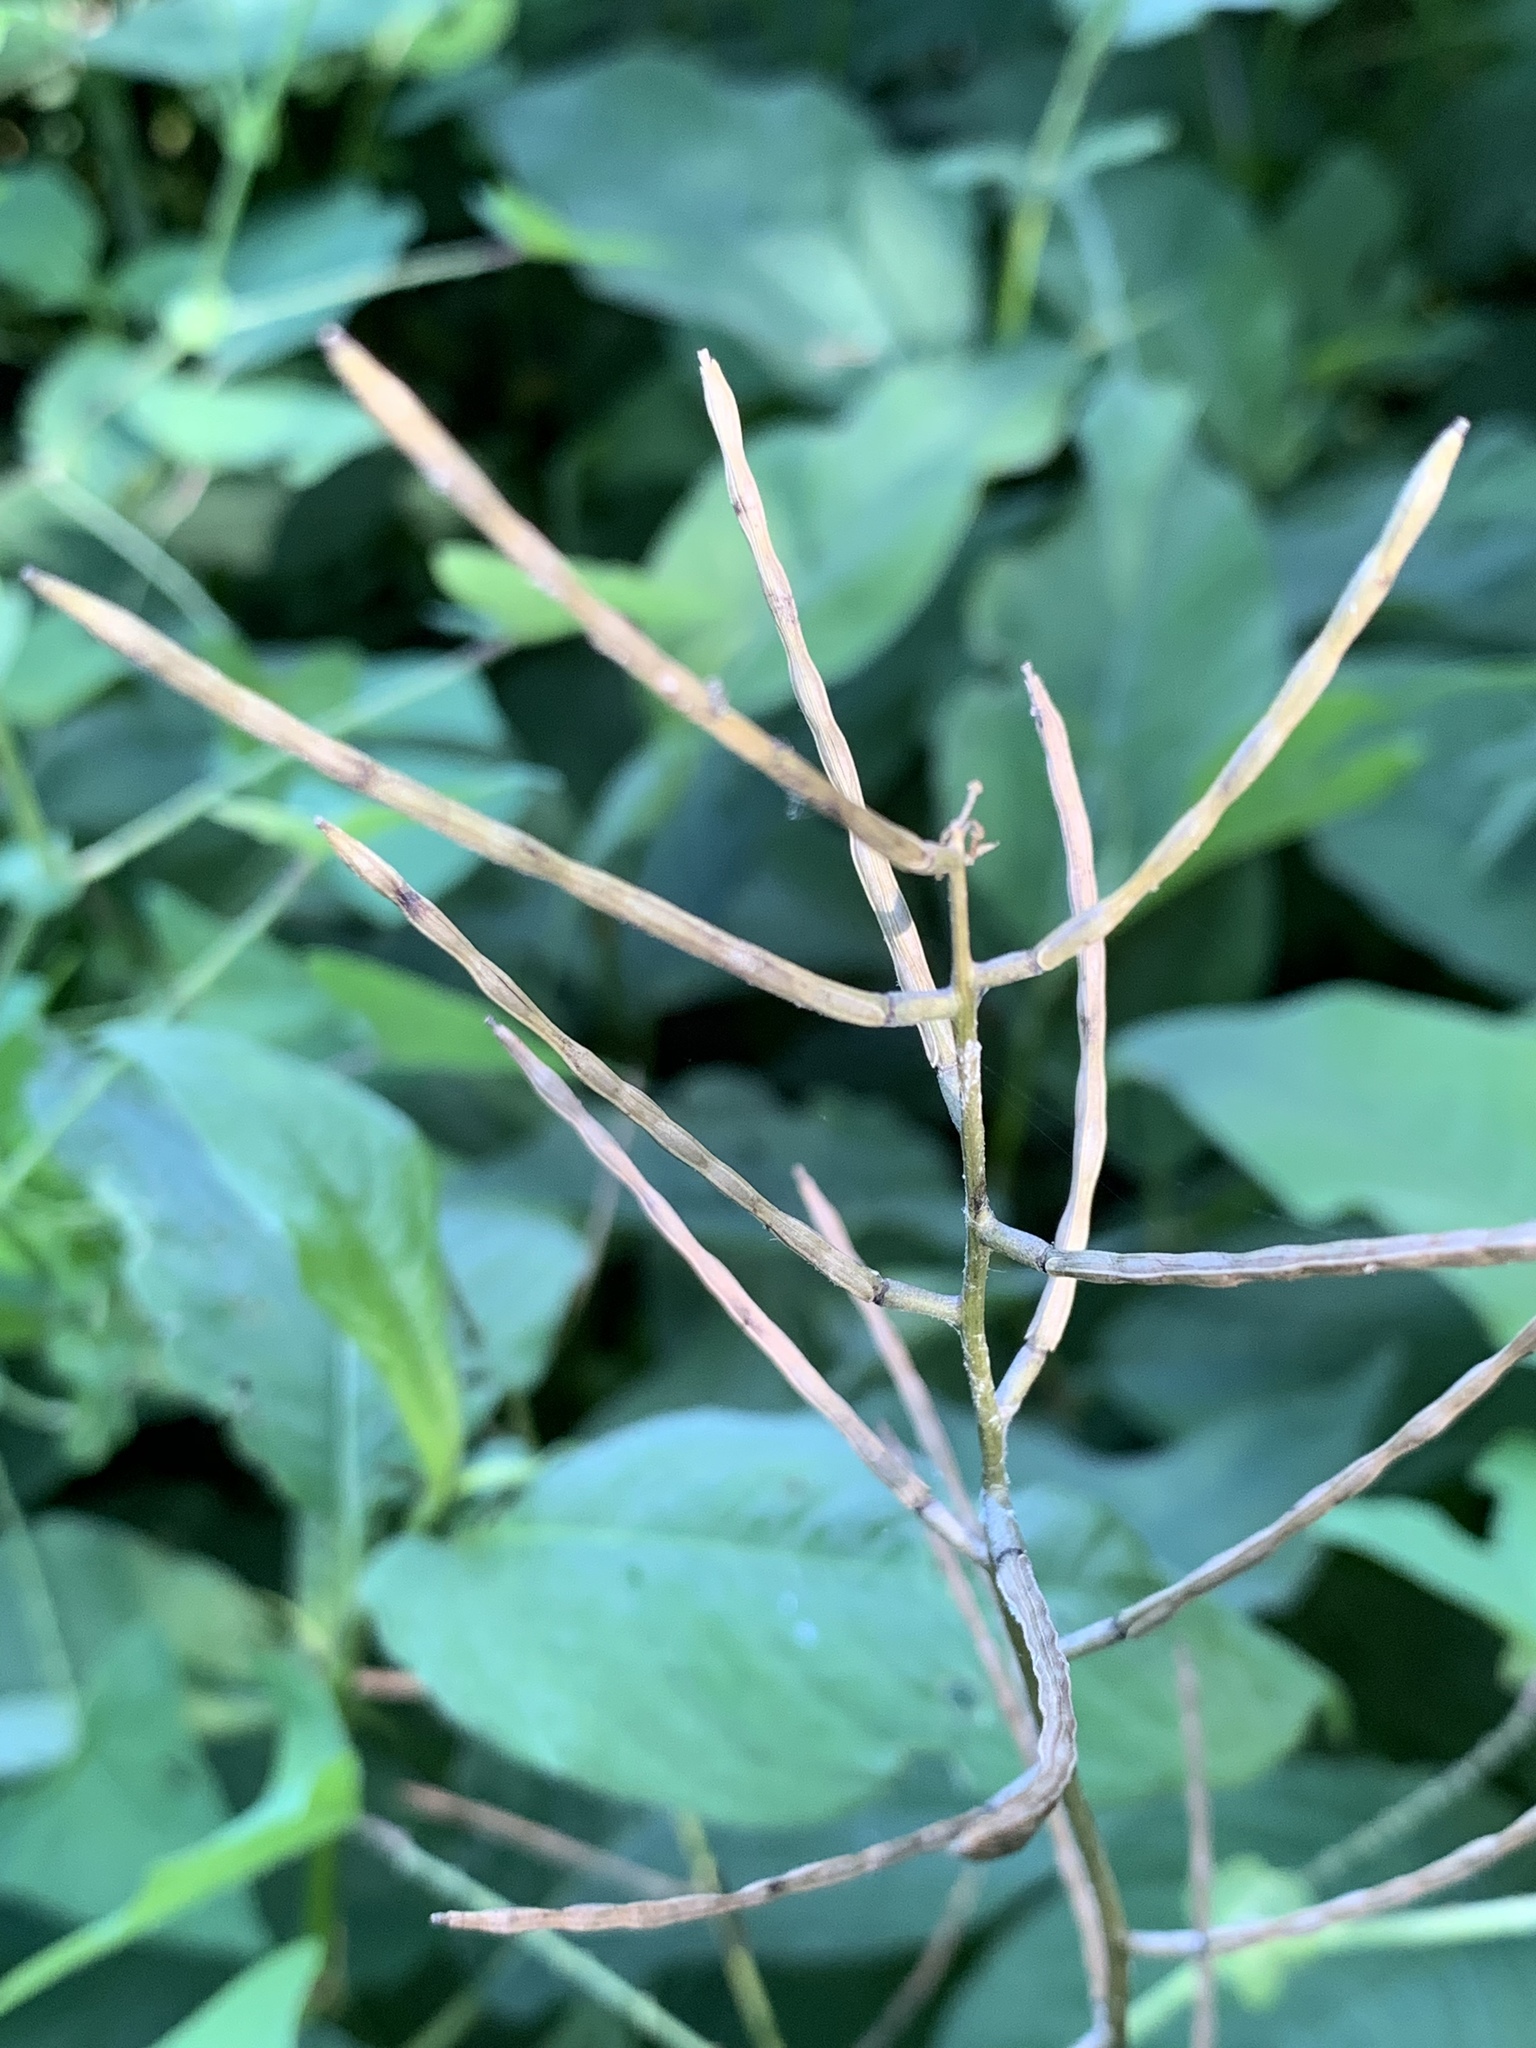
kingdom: Plantae
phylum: Tracheophyta
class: Magnoliopsida
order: Brassicales
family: Brassicaceae
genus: Alliaria
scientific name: Alliaria petiolata
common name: Garlic mustard
